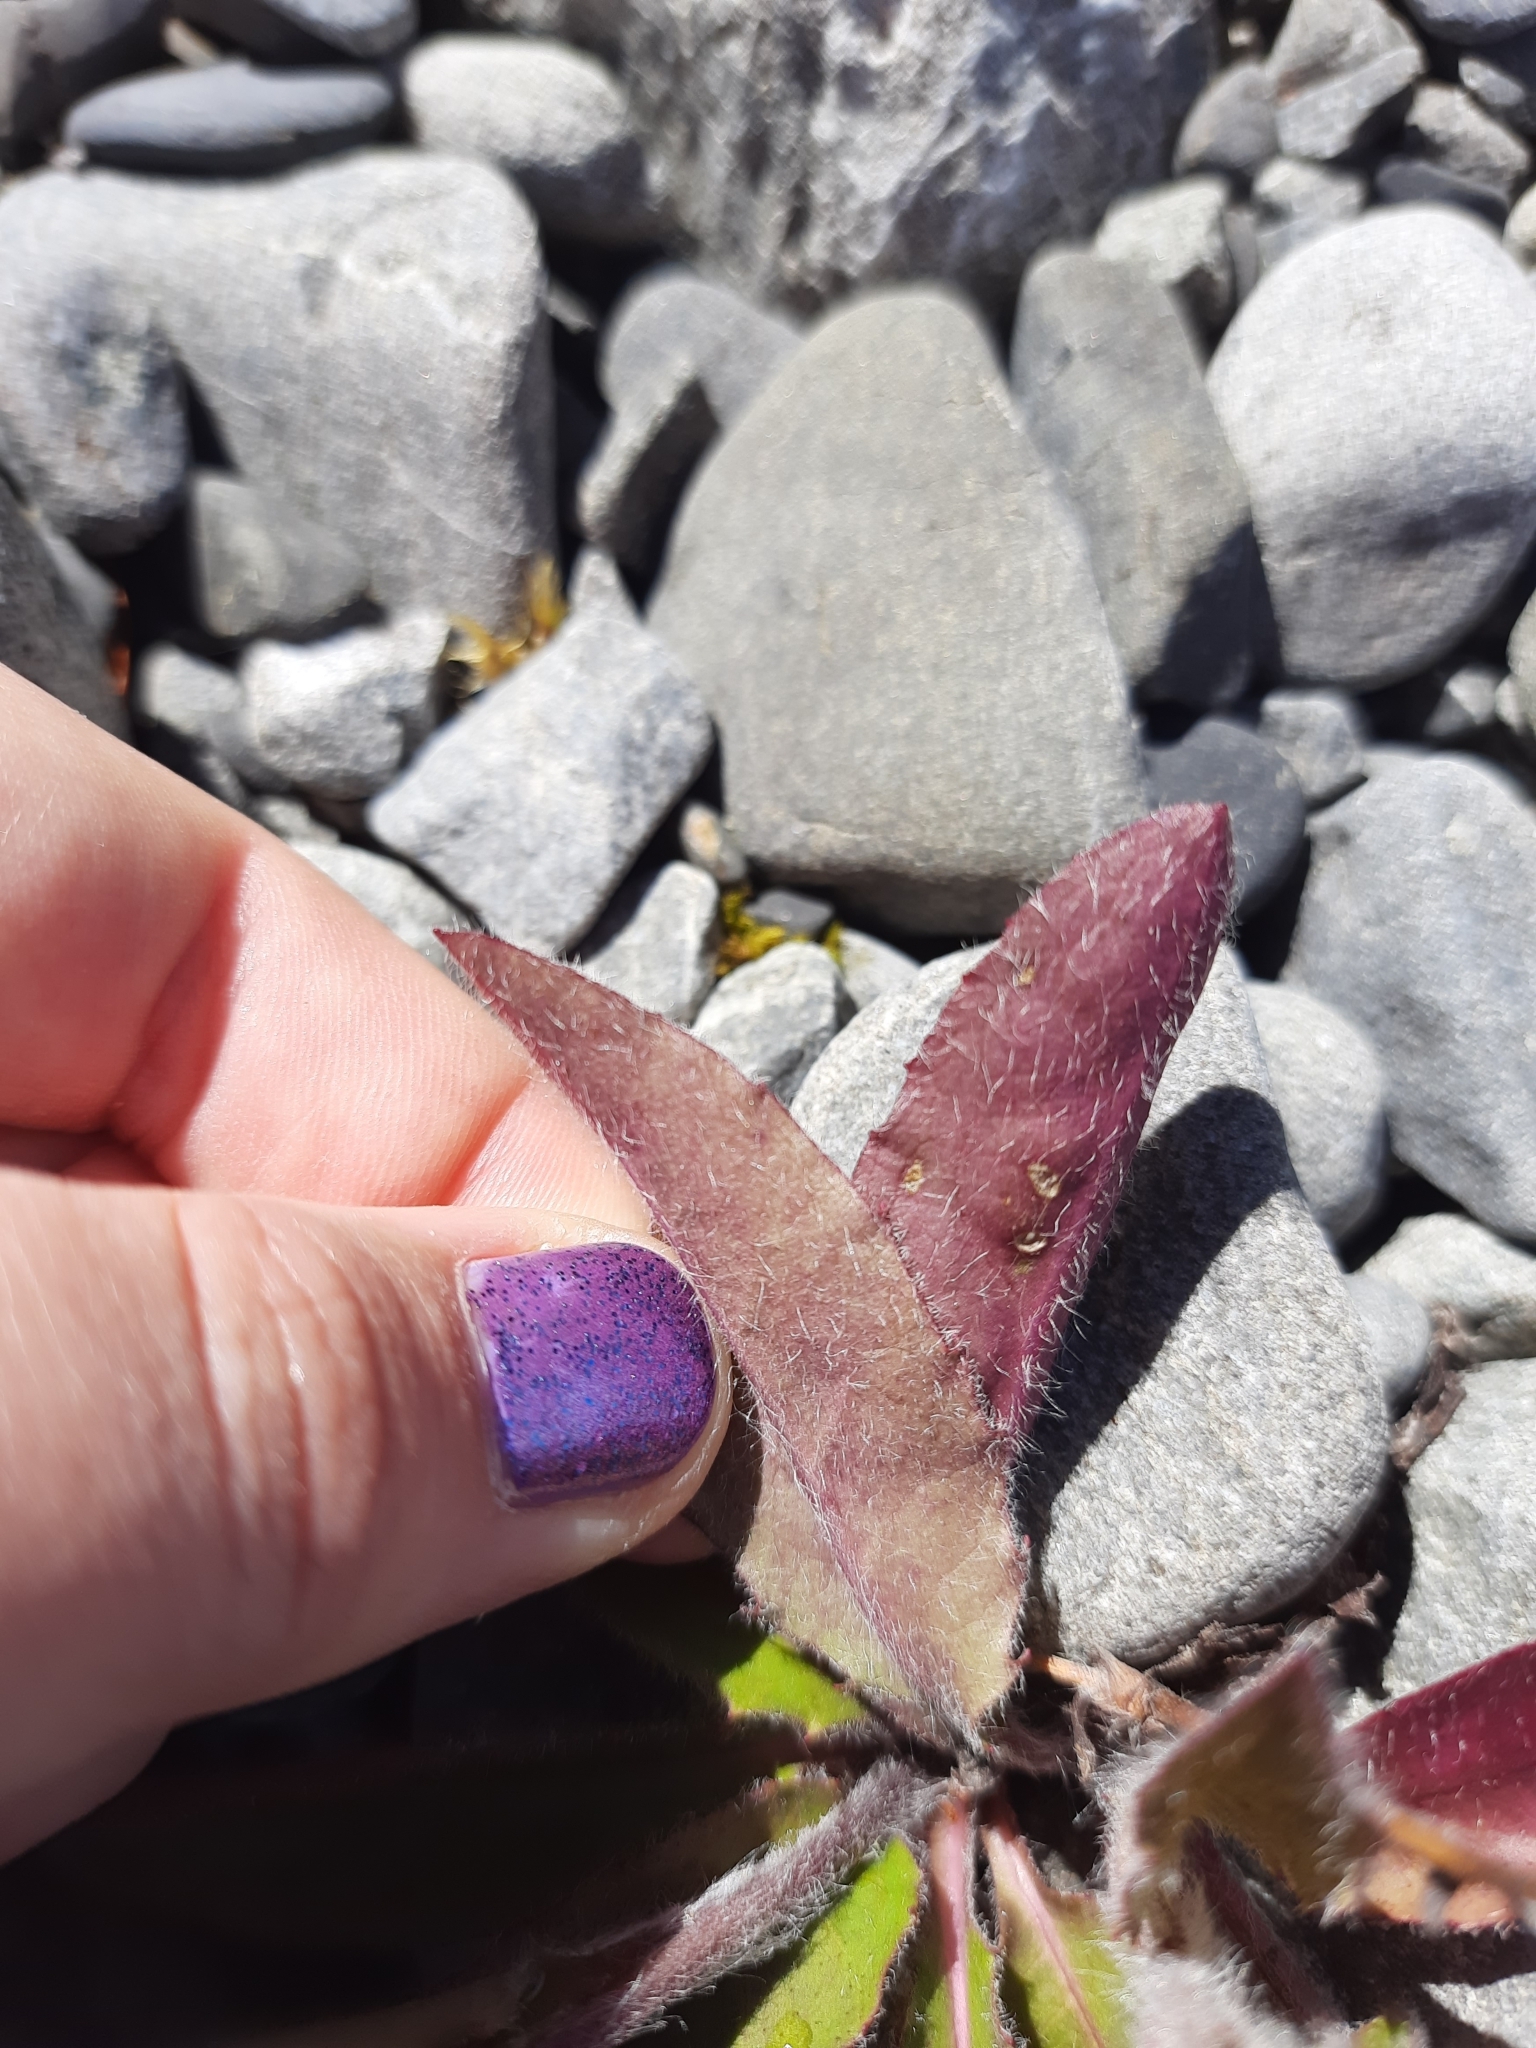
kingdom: Plantae
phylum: Tracheophyta
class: Magnoliopsida
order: Asterales
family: Asteraceae
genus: Hieracium
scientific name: Hieracium lepidulum
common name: Irregular-toothed hawkweed
